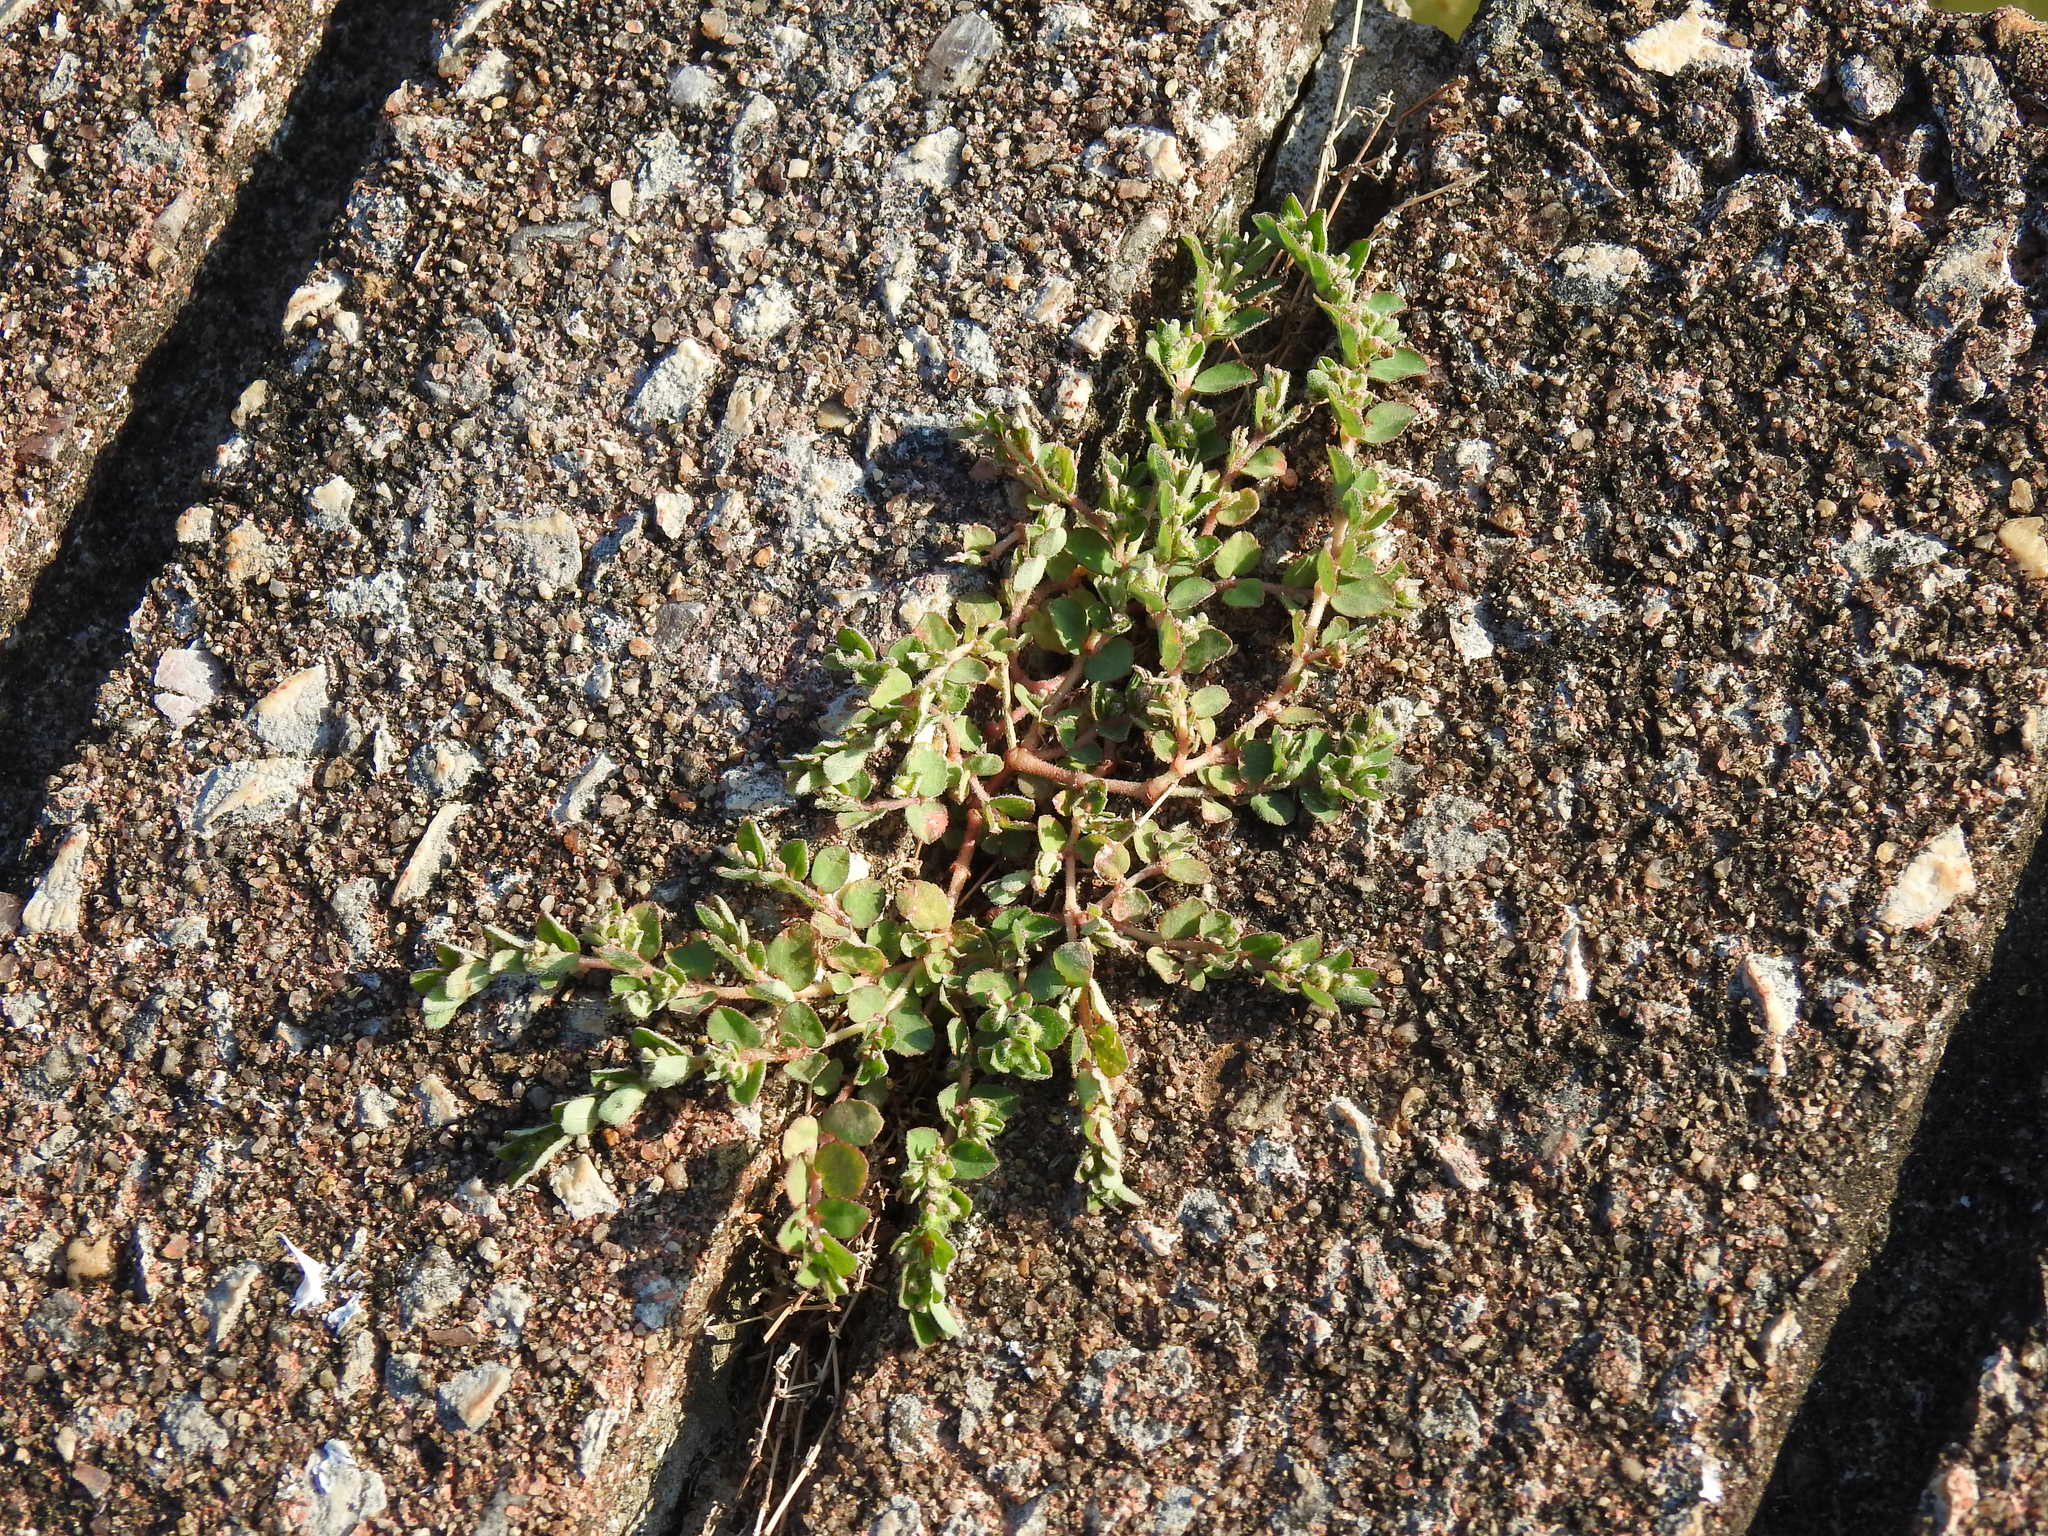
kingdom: Plantae
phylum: Tracheophyta
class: Magnoliopsida
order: Malpighiales
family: Euphorbiaceae
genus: Euphorbia
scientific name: Euphorbia prostrata
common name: Prostrate sandmat
